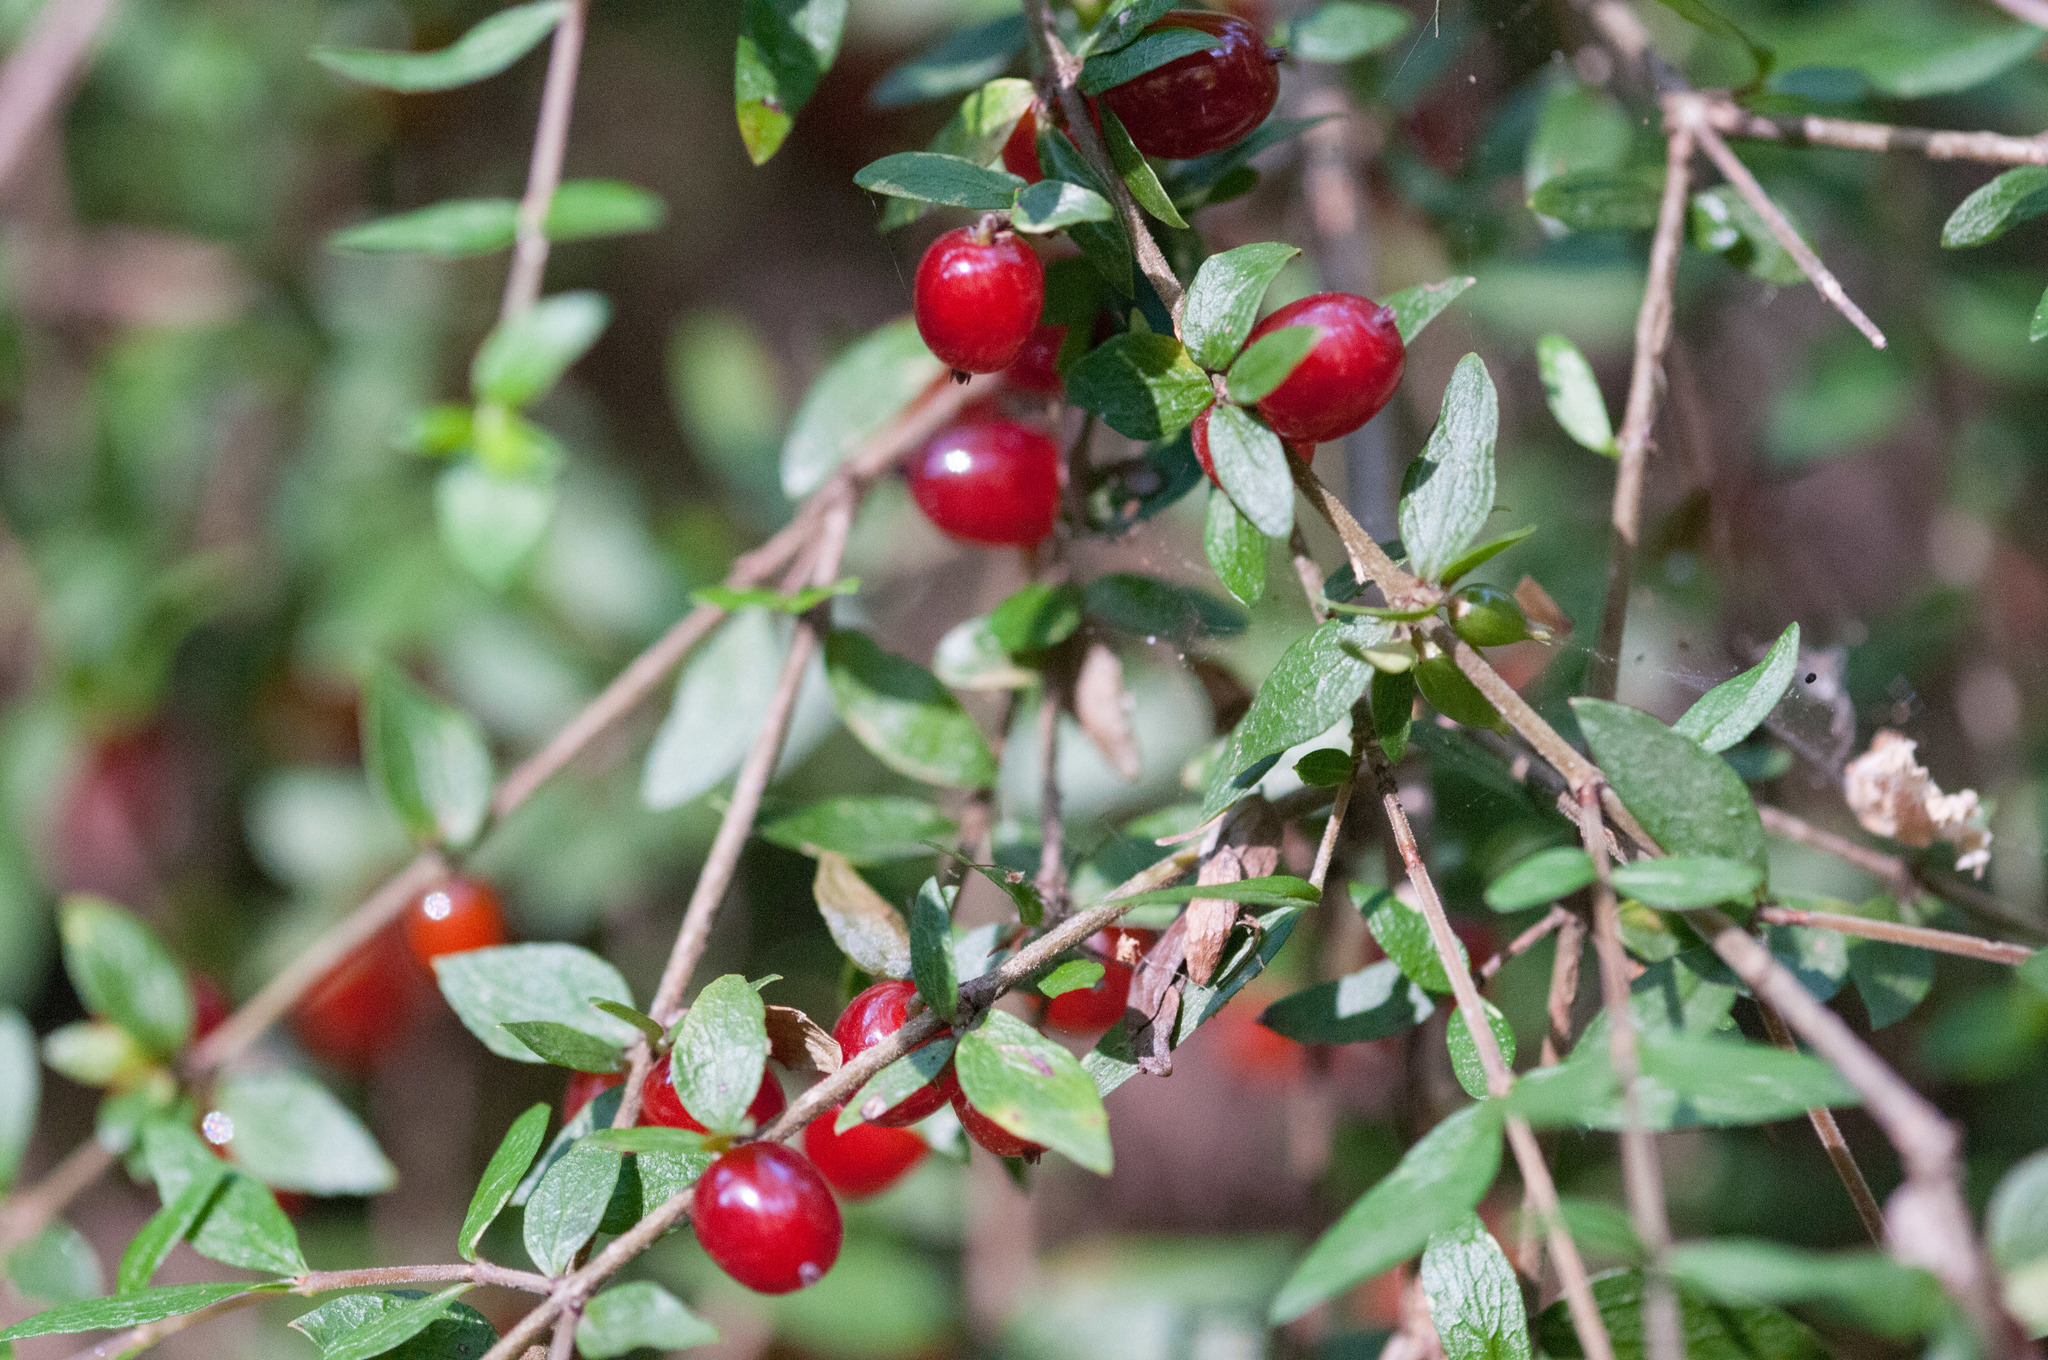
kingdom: Plantae
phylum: Tracheophyta
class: Magnoliopsida
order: Gentianales
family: Rubiaceae
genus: Coprosma
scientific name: Coprosma quadrifida
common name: Prickly currantbush
